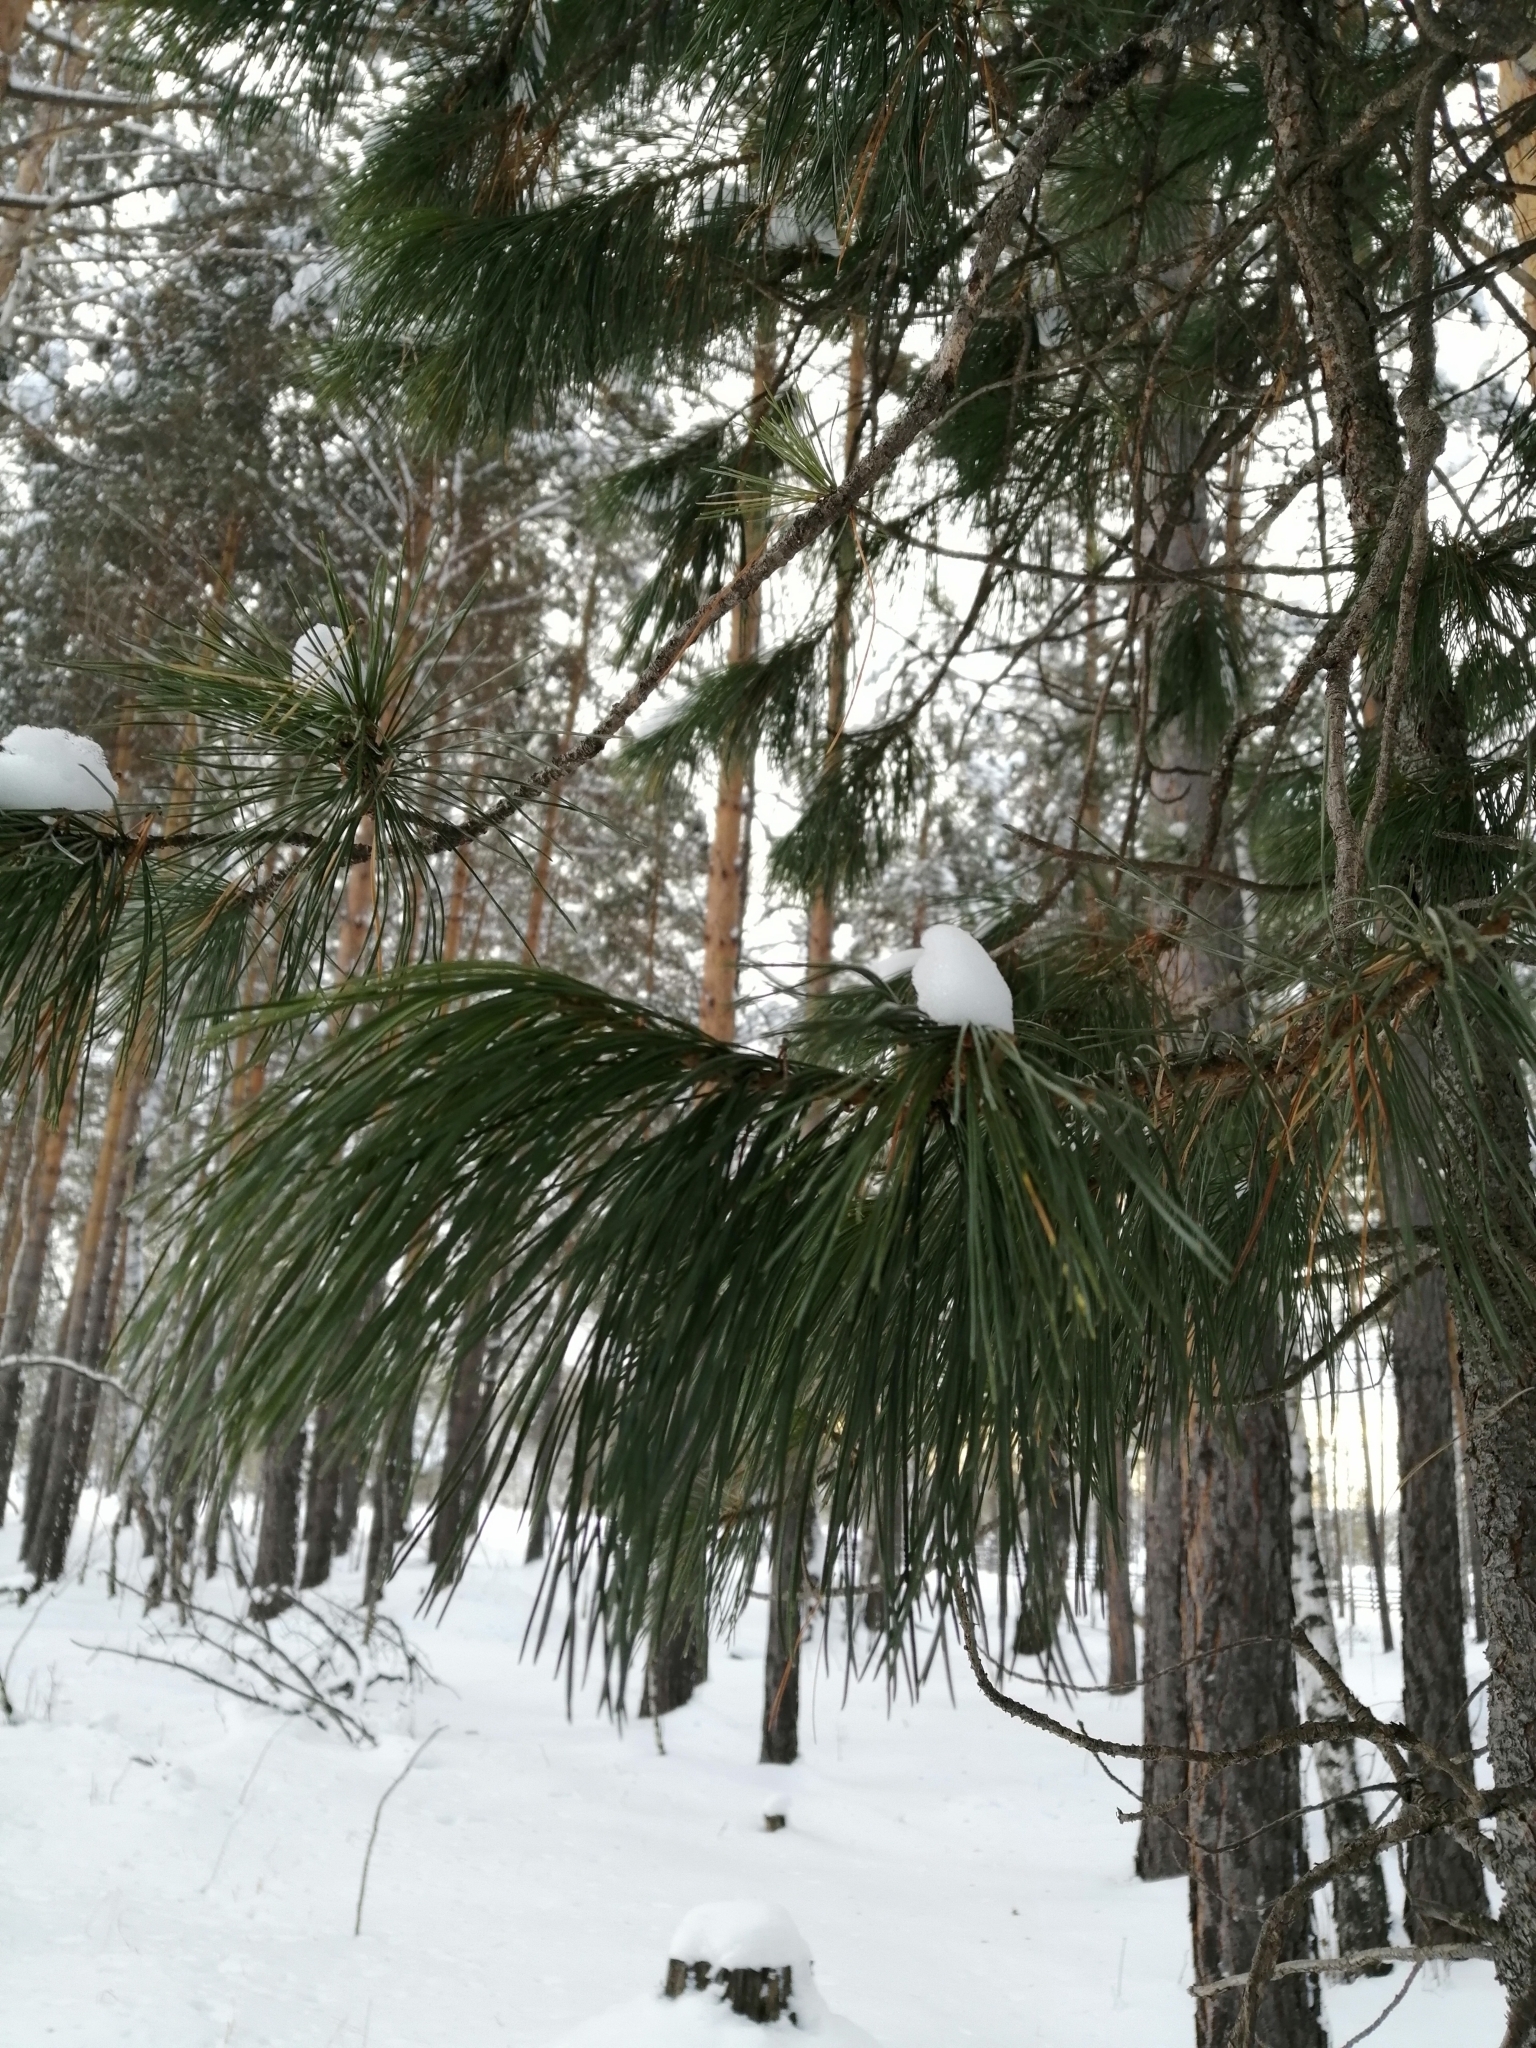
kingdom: Plantae
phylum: Tracheophyta
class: Pinopsida
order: Pinales
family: Pinaceae
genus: Pinus
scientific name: Pinus sibirica
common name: Siberian pine
